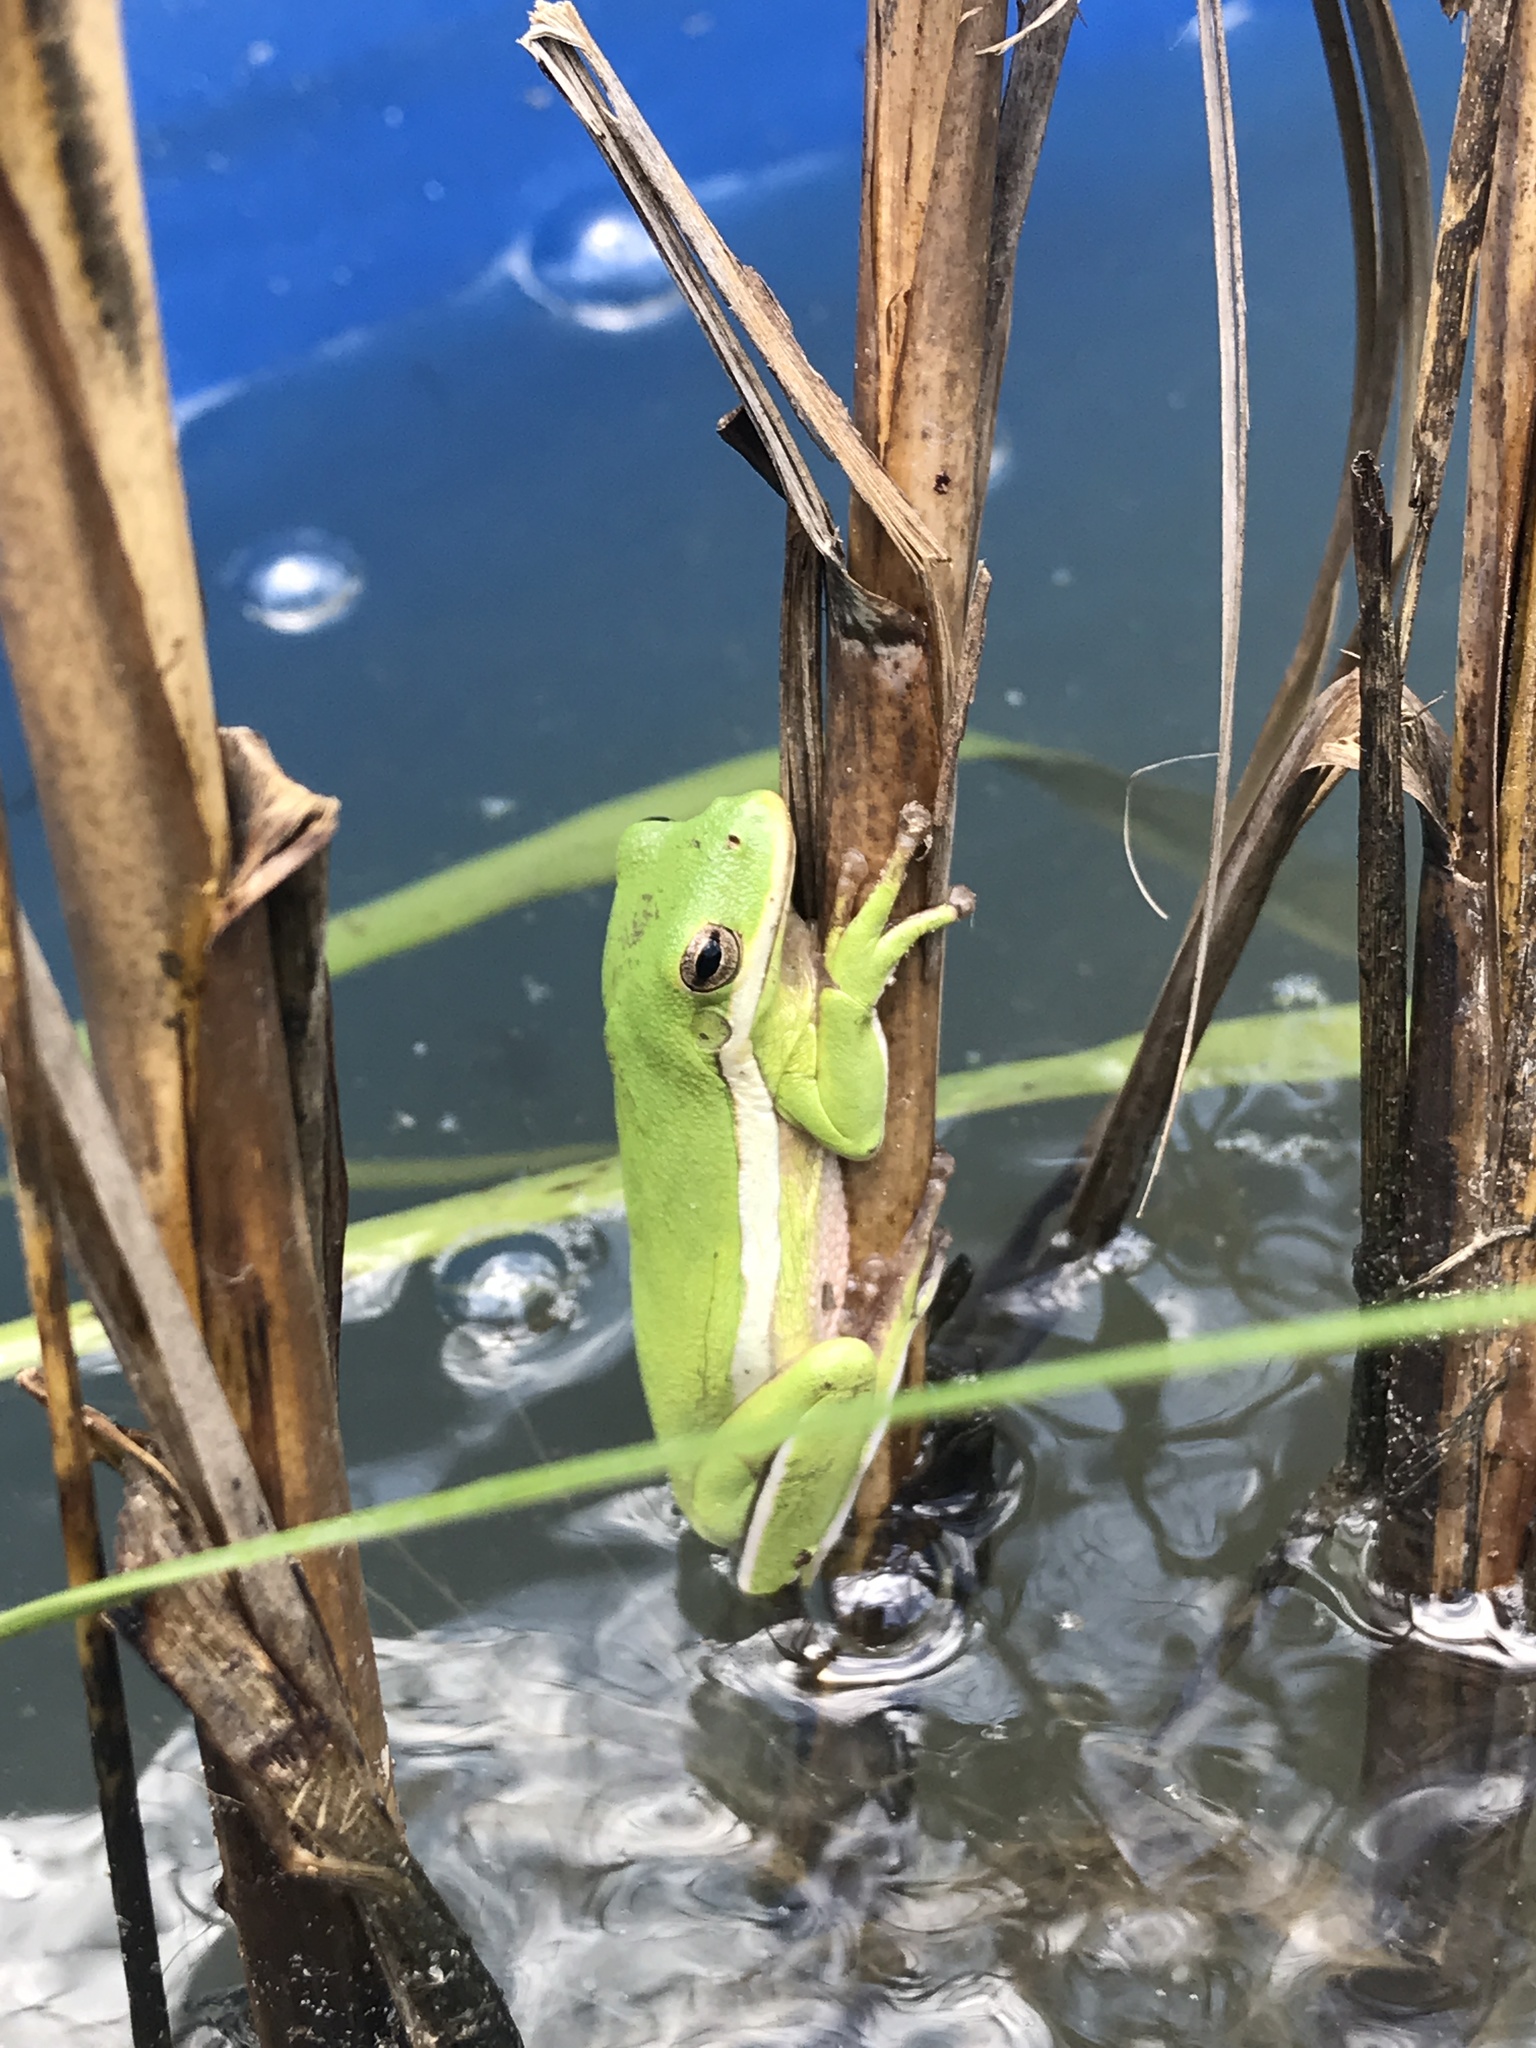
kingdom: Animalia
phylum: Chordata
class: Amphibia
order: Anura
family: Hylidae
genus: Dryophytes
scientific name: Dryophytes cinereus
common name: Green treefrog
